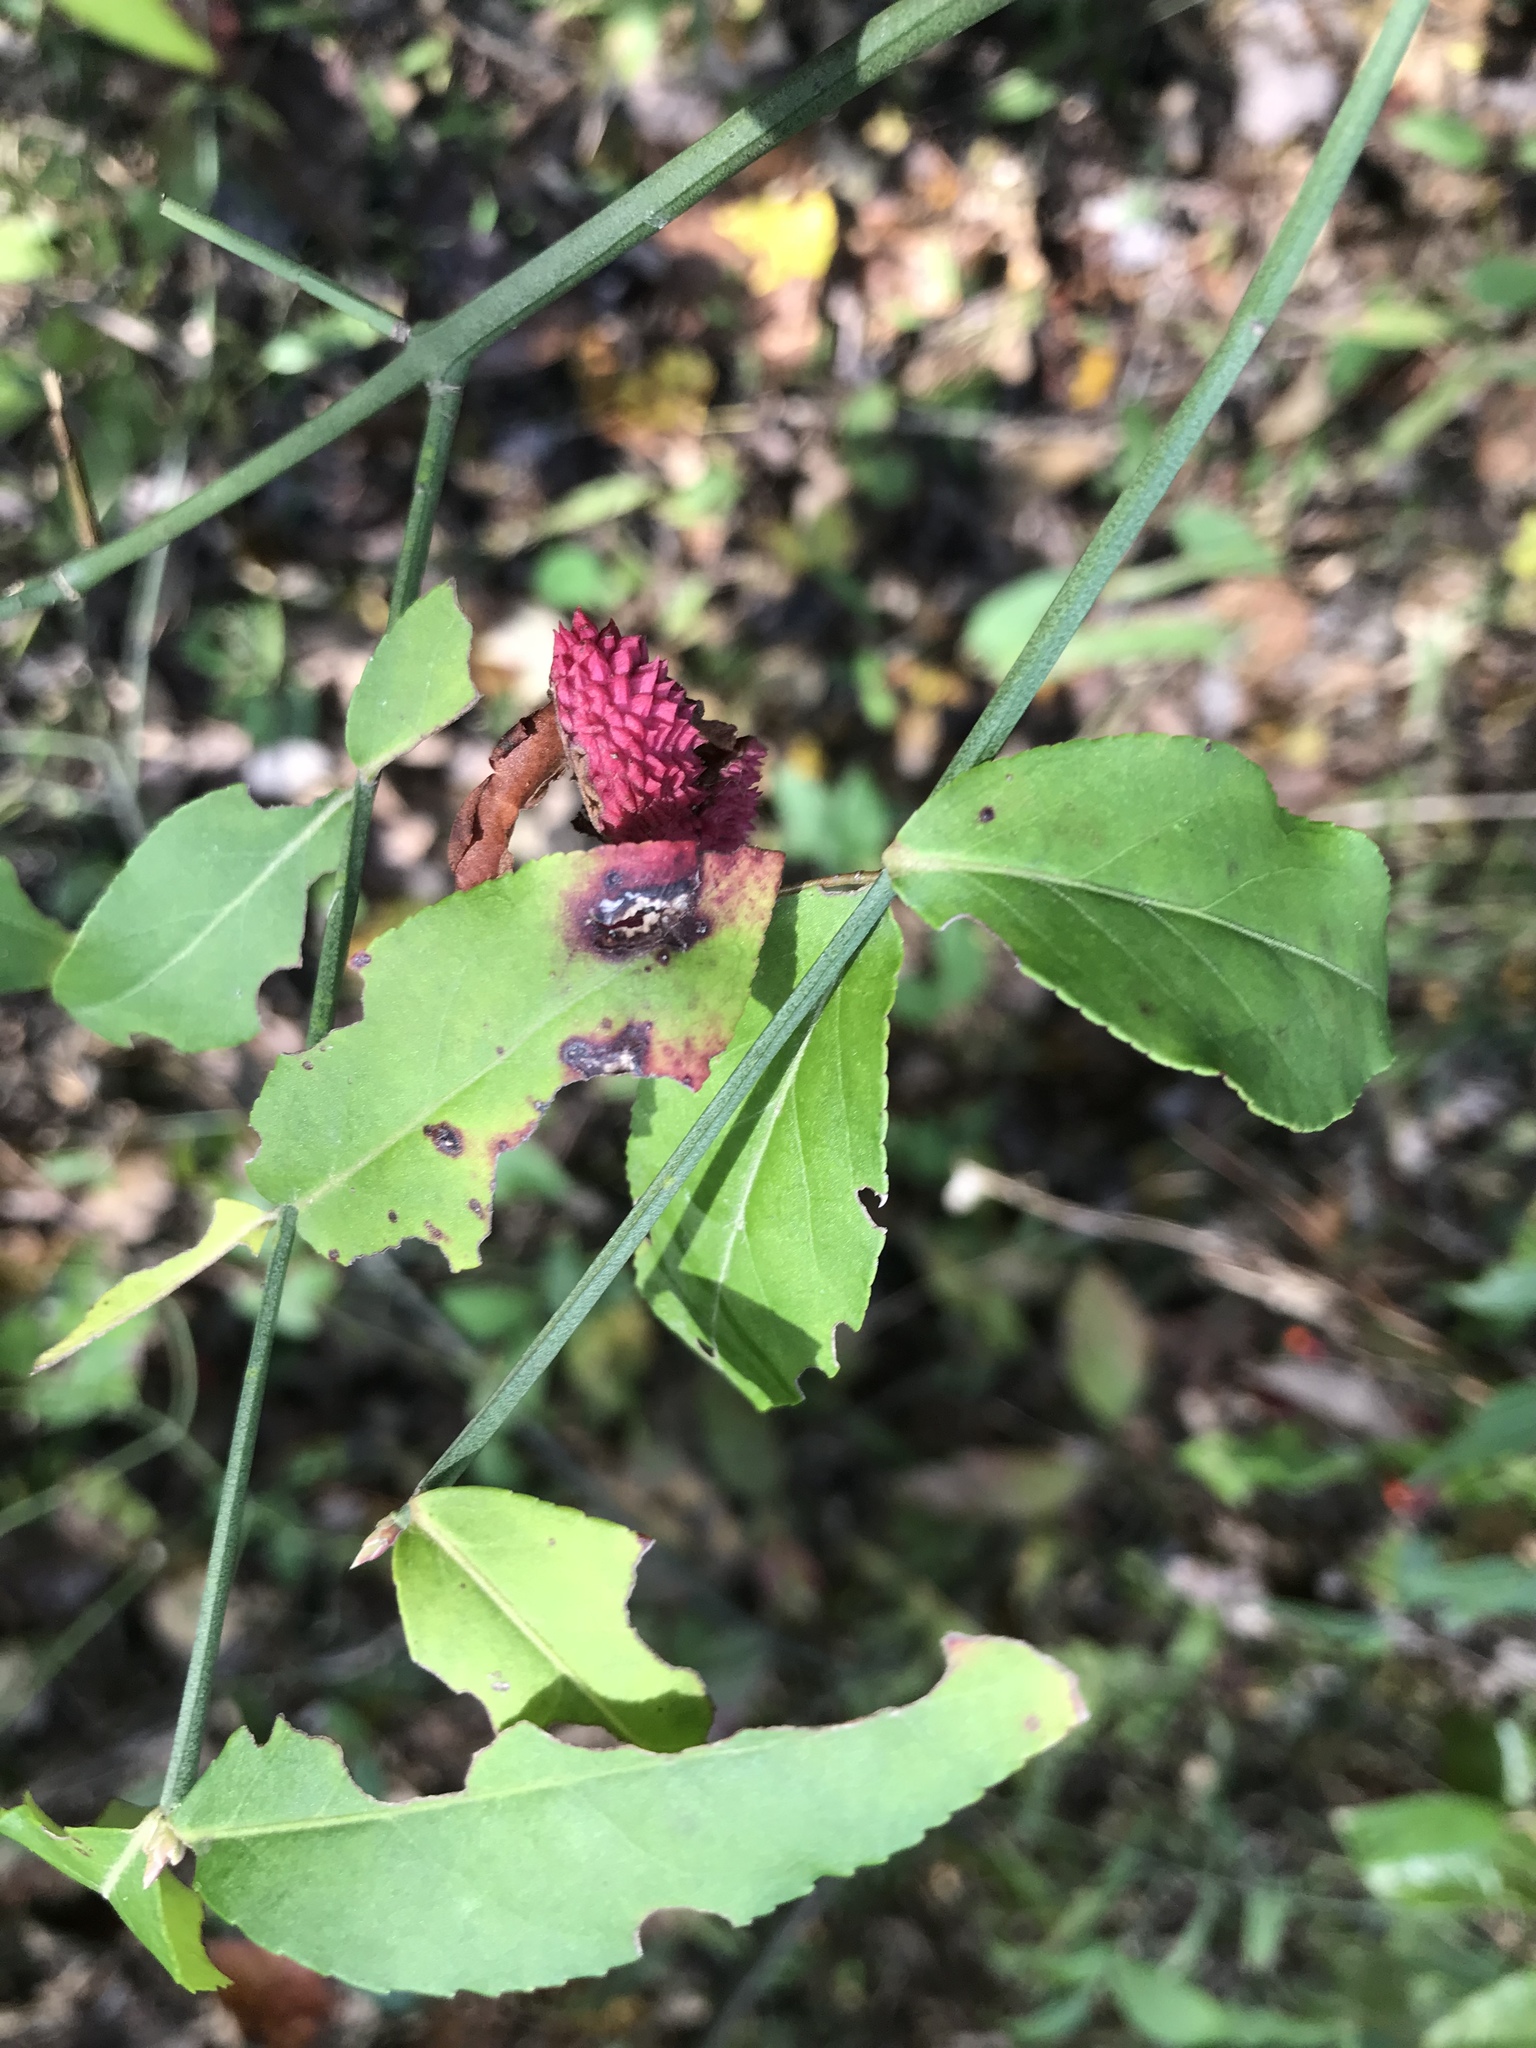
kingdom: Plantae
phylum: Tracheophyta
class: Magnoliopsida
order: Celastrales
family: Celastraceae
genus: Euonymus
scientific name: Euonymus americanus
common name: Bursting-heart
